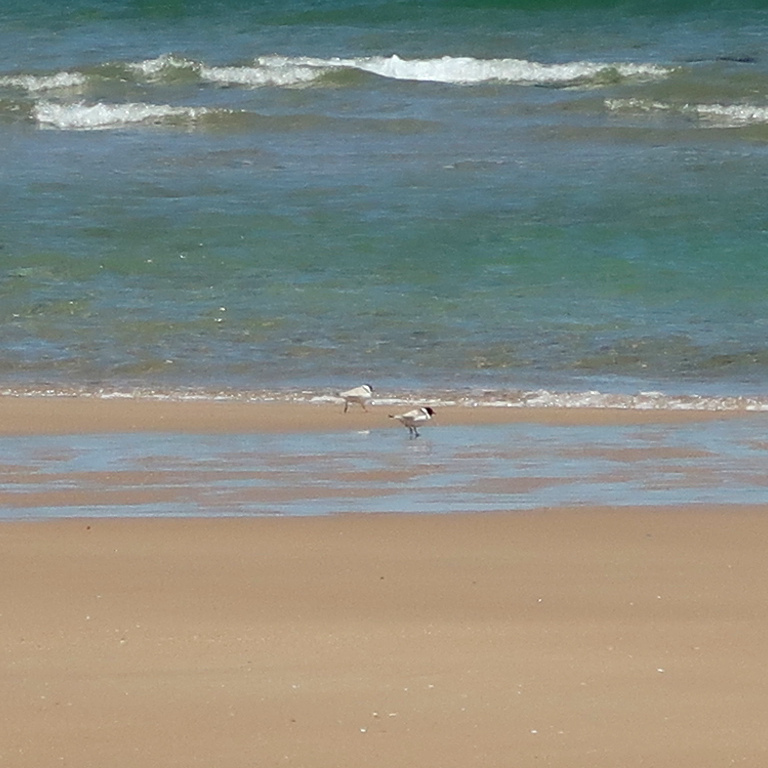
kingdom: Animalia
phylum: Chordata
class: Aves
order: Charadriiformes
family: Charadriidae
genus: Thinornis
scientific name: Thinornis cucullatus
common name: Hooded dotterel
